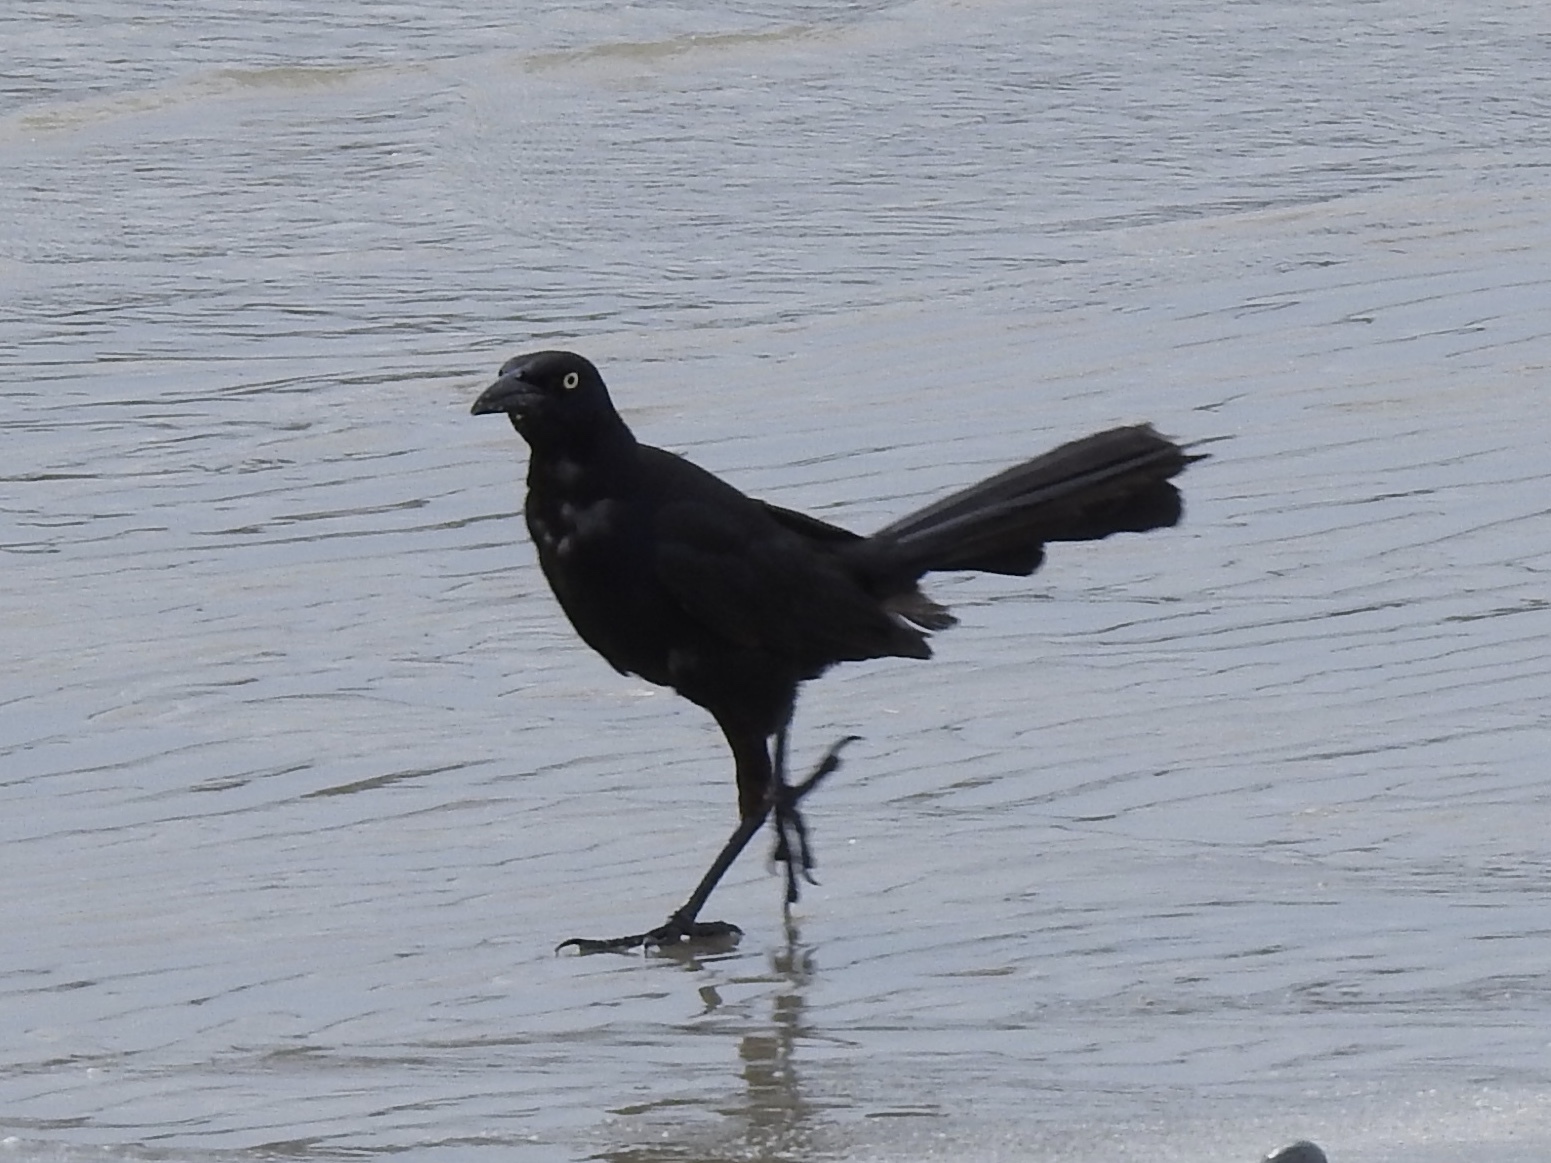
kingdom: Animalia
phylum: Chordata
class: Aves
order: Passeriformes
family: Icteridae
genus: Quiscalus
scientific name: Quiscalus mexicanus
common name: Great-tailed grackle
